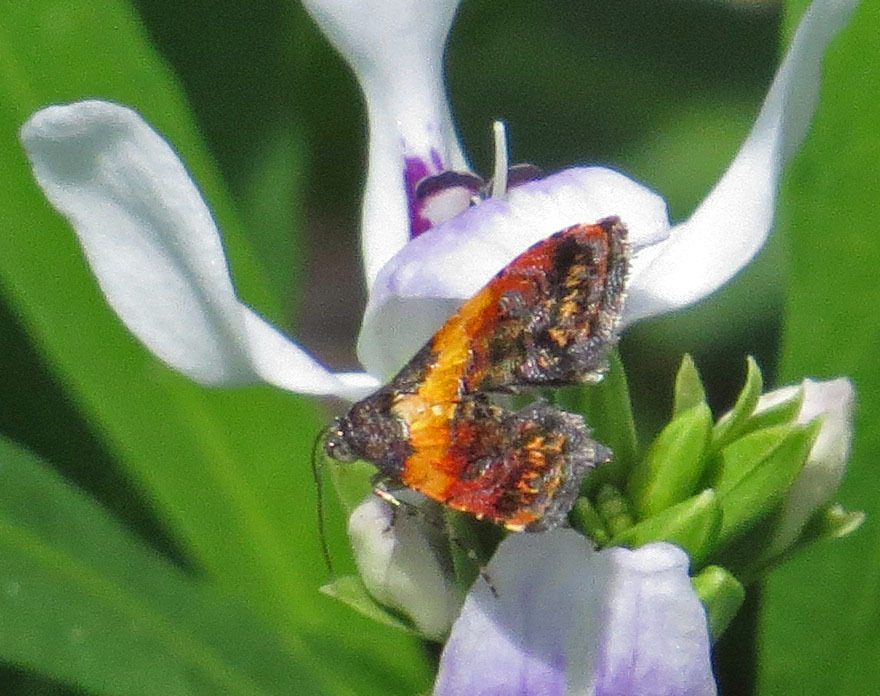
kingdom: Animalia
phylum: Arthropoda
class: Insecta
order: Lepidoptera
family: Noctuidae
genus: Tripudia
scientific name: Tripudia flavofasciata
